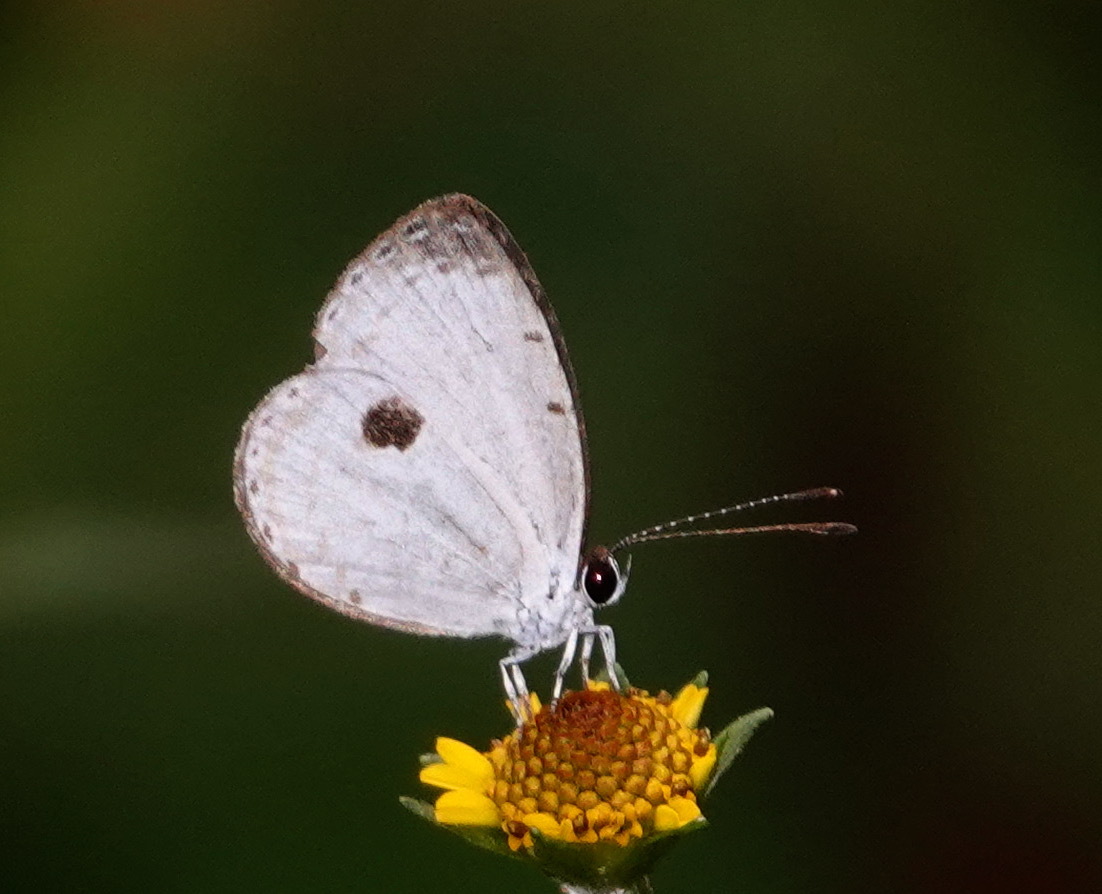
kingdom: Animalia
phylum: Arthropoda
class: Insecta
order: Lepidoptera
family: Lycaenidae
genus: Pithecops
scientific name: Pithecops corvus
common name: Forest quaker
